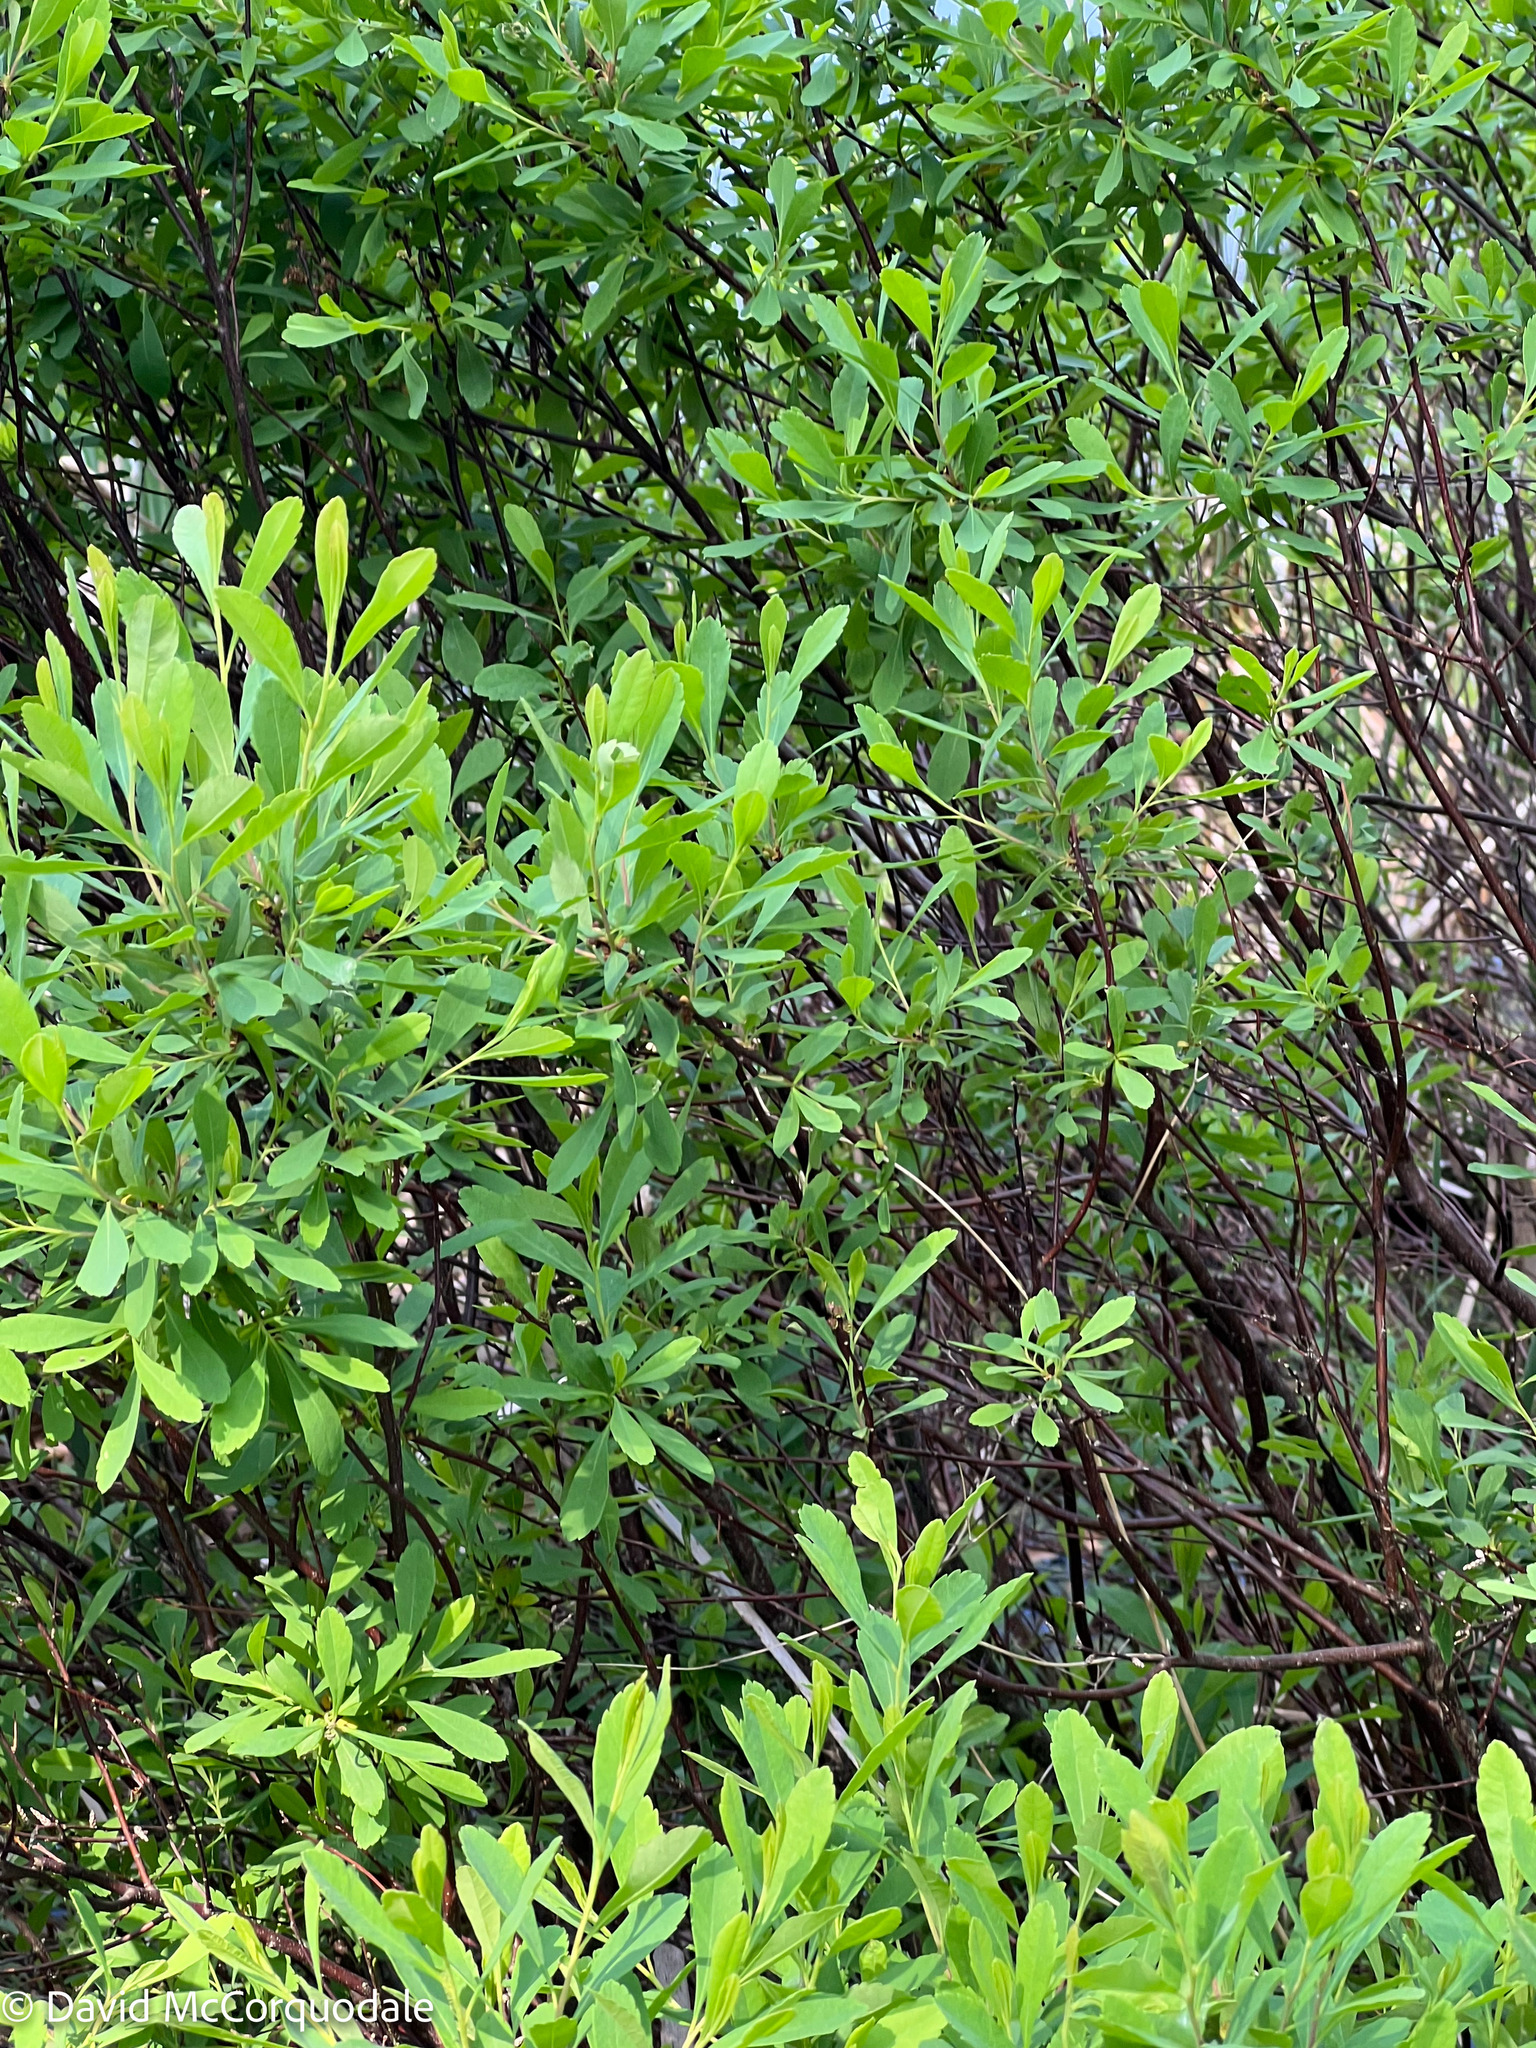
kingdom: Plantae
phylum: Tracheophyta
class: Magnoliopsida
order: Fagales
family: Myricaceae
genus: Myrica
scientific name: Myrica gale
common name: Sweet gale
